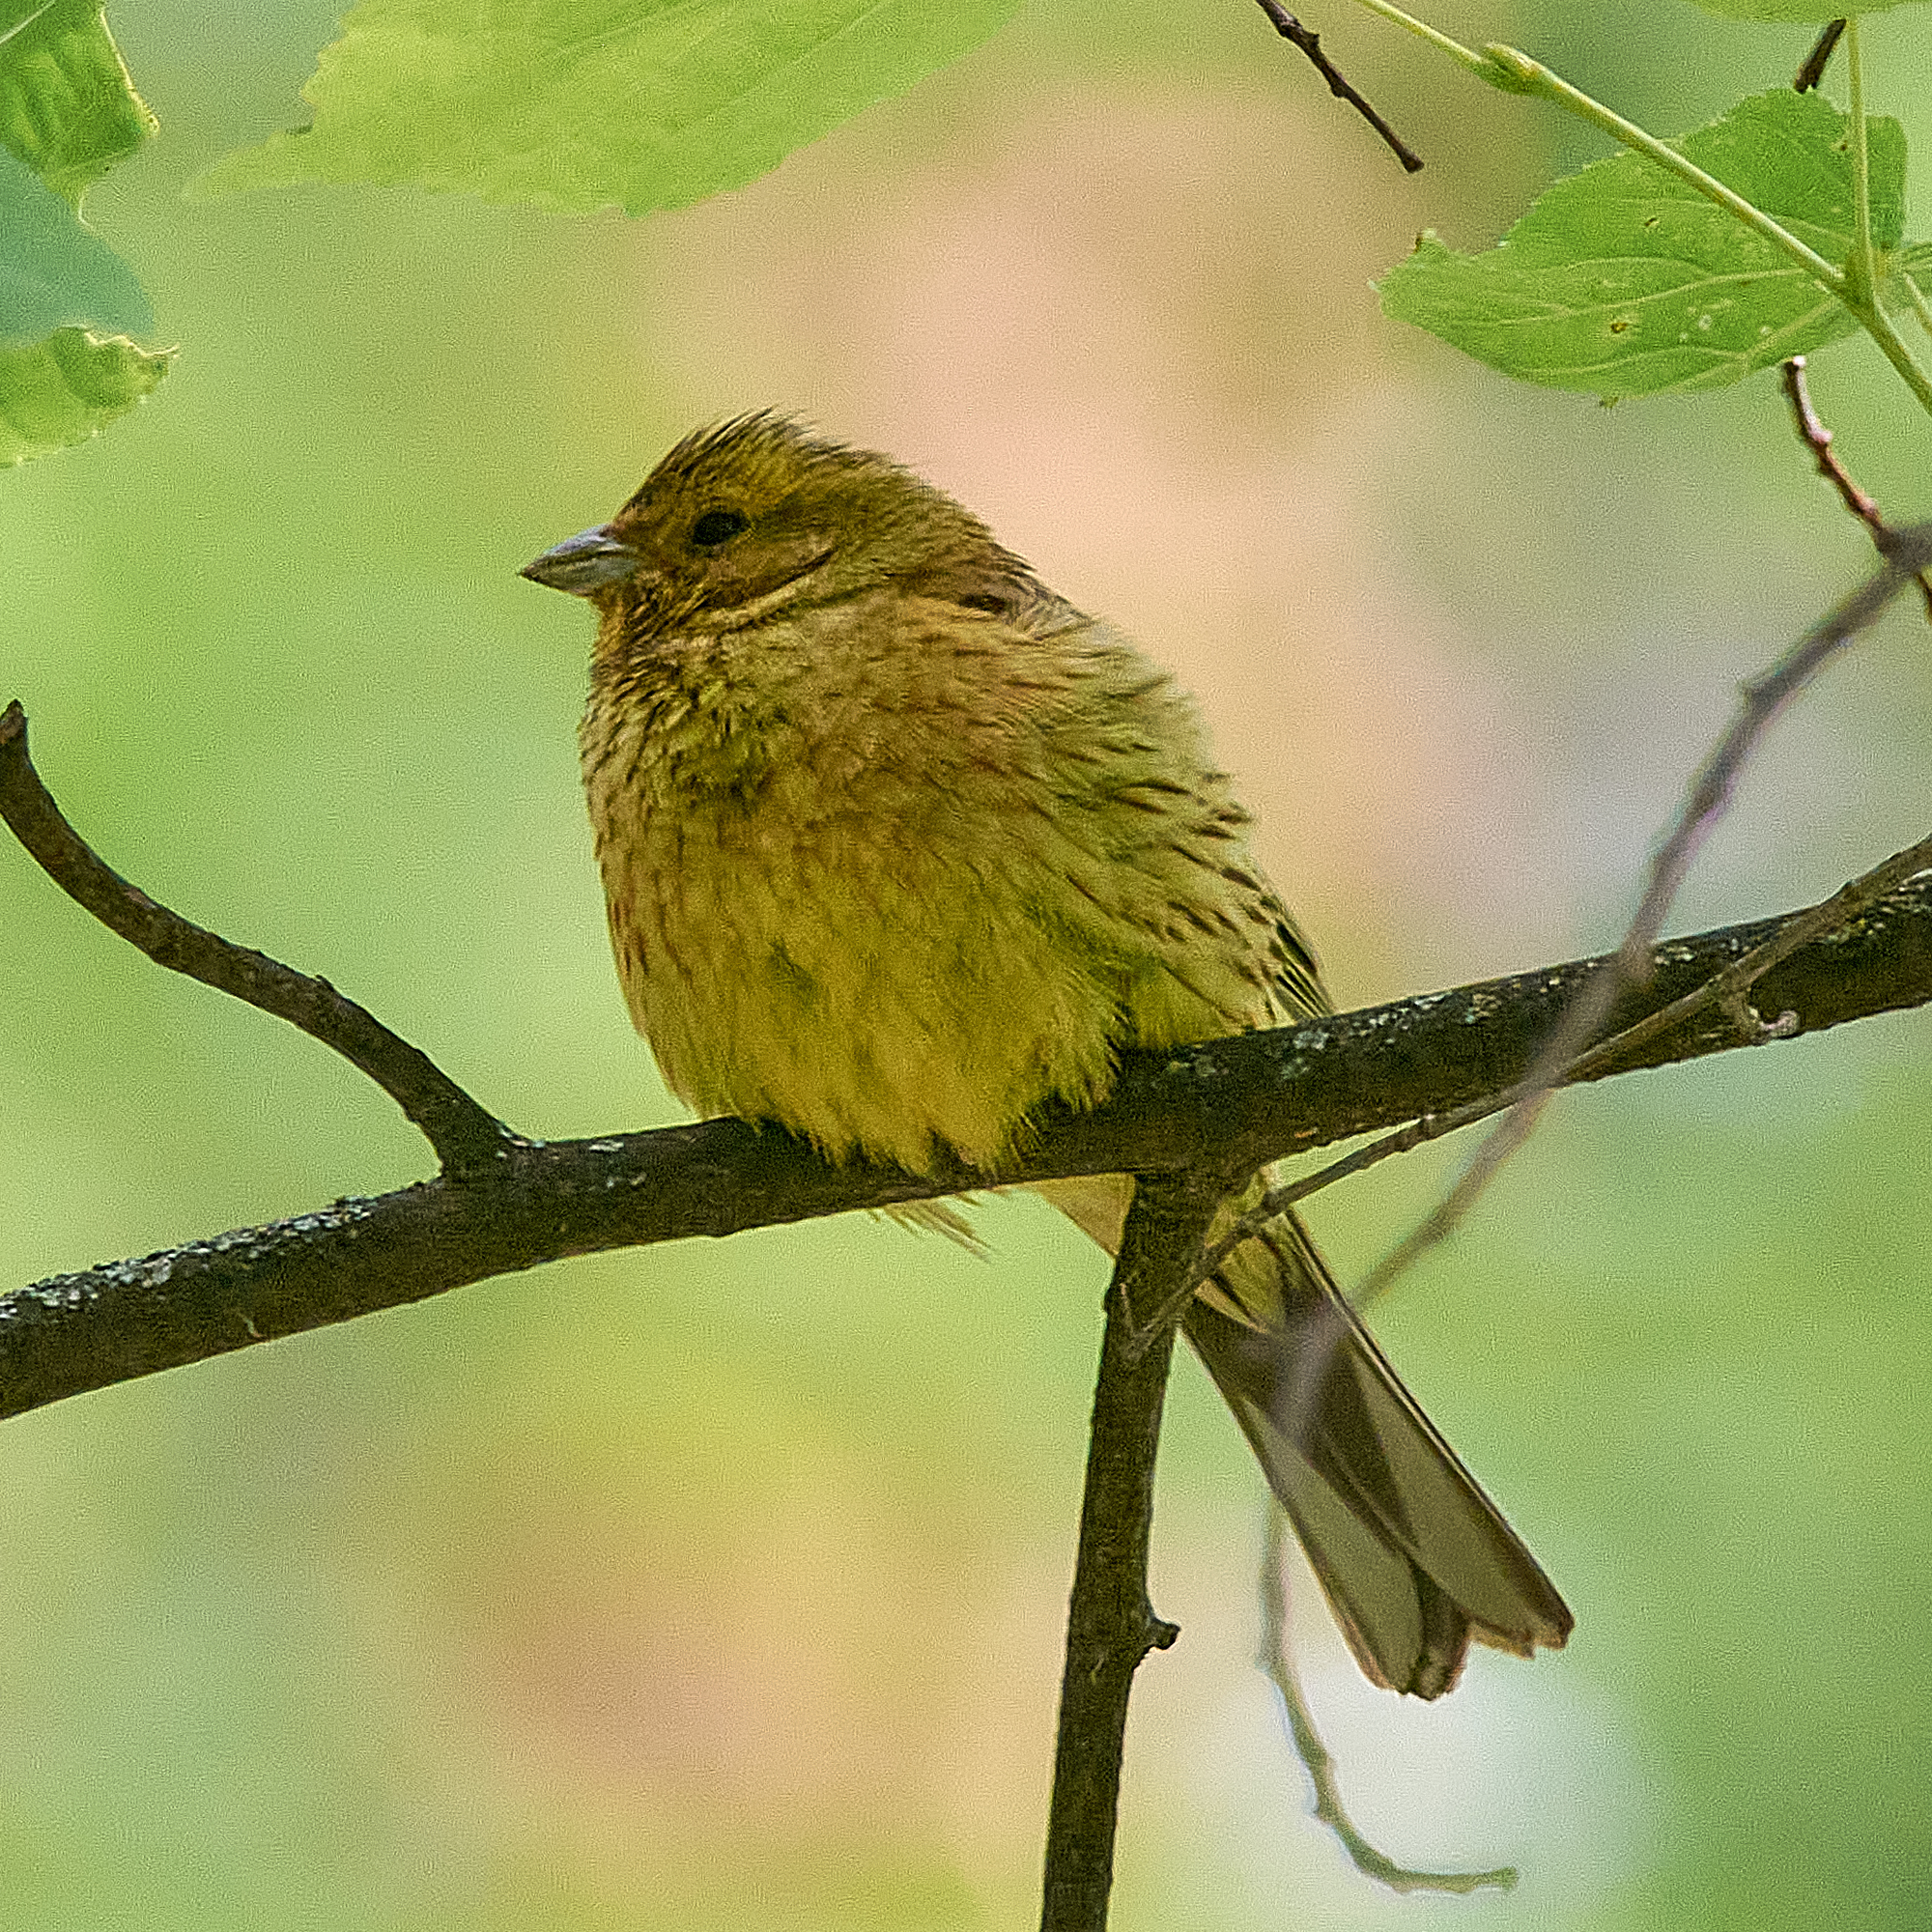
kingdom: Animalia
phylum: Chordata
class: Aves
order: Passeriformes
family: Emberizidae
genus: Emberiza
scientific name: Emberiza citrinella
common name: Yellowhammer
